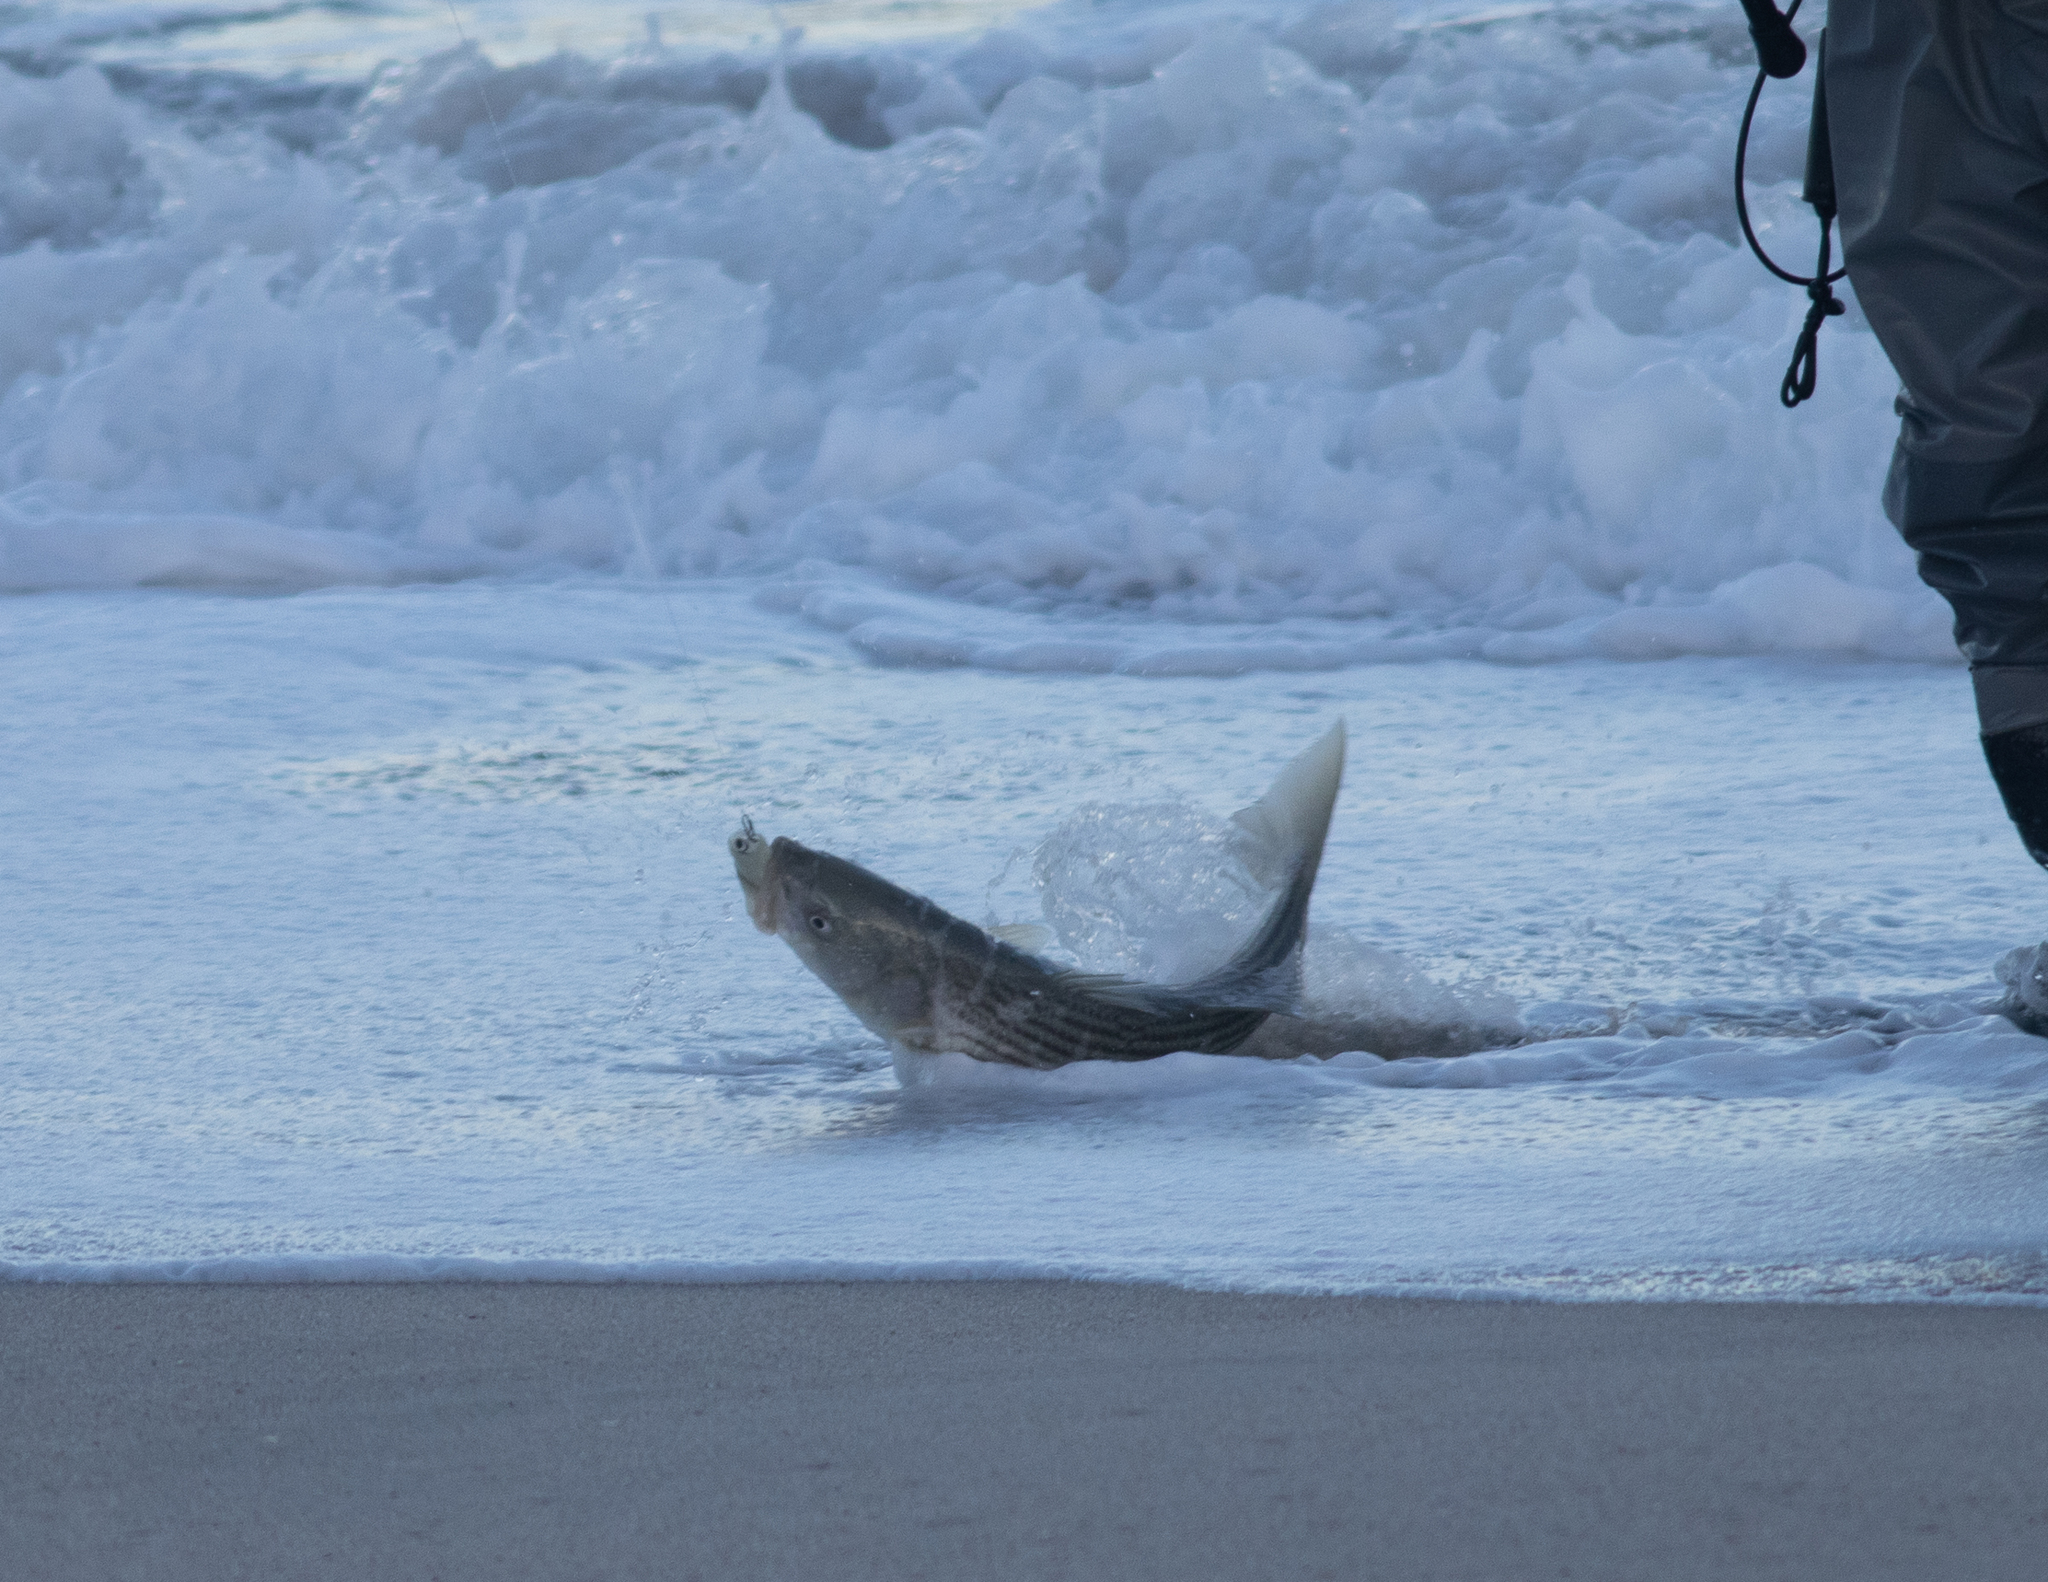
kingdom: Animalia
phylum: Chordata
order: Perciformes
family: Moronidae
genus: Morone
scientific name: Morone saxatilis
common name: Striped bass
